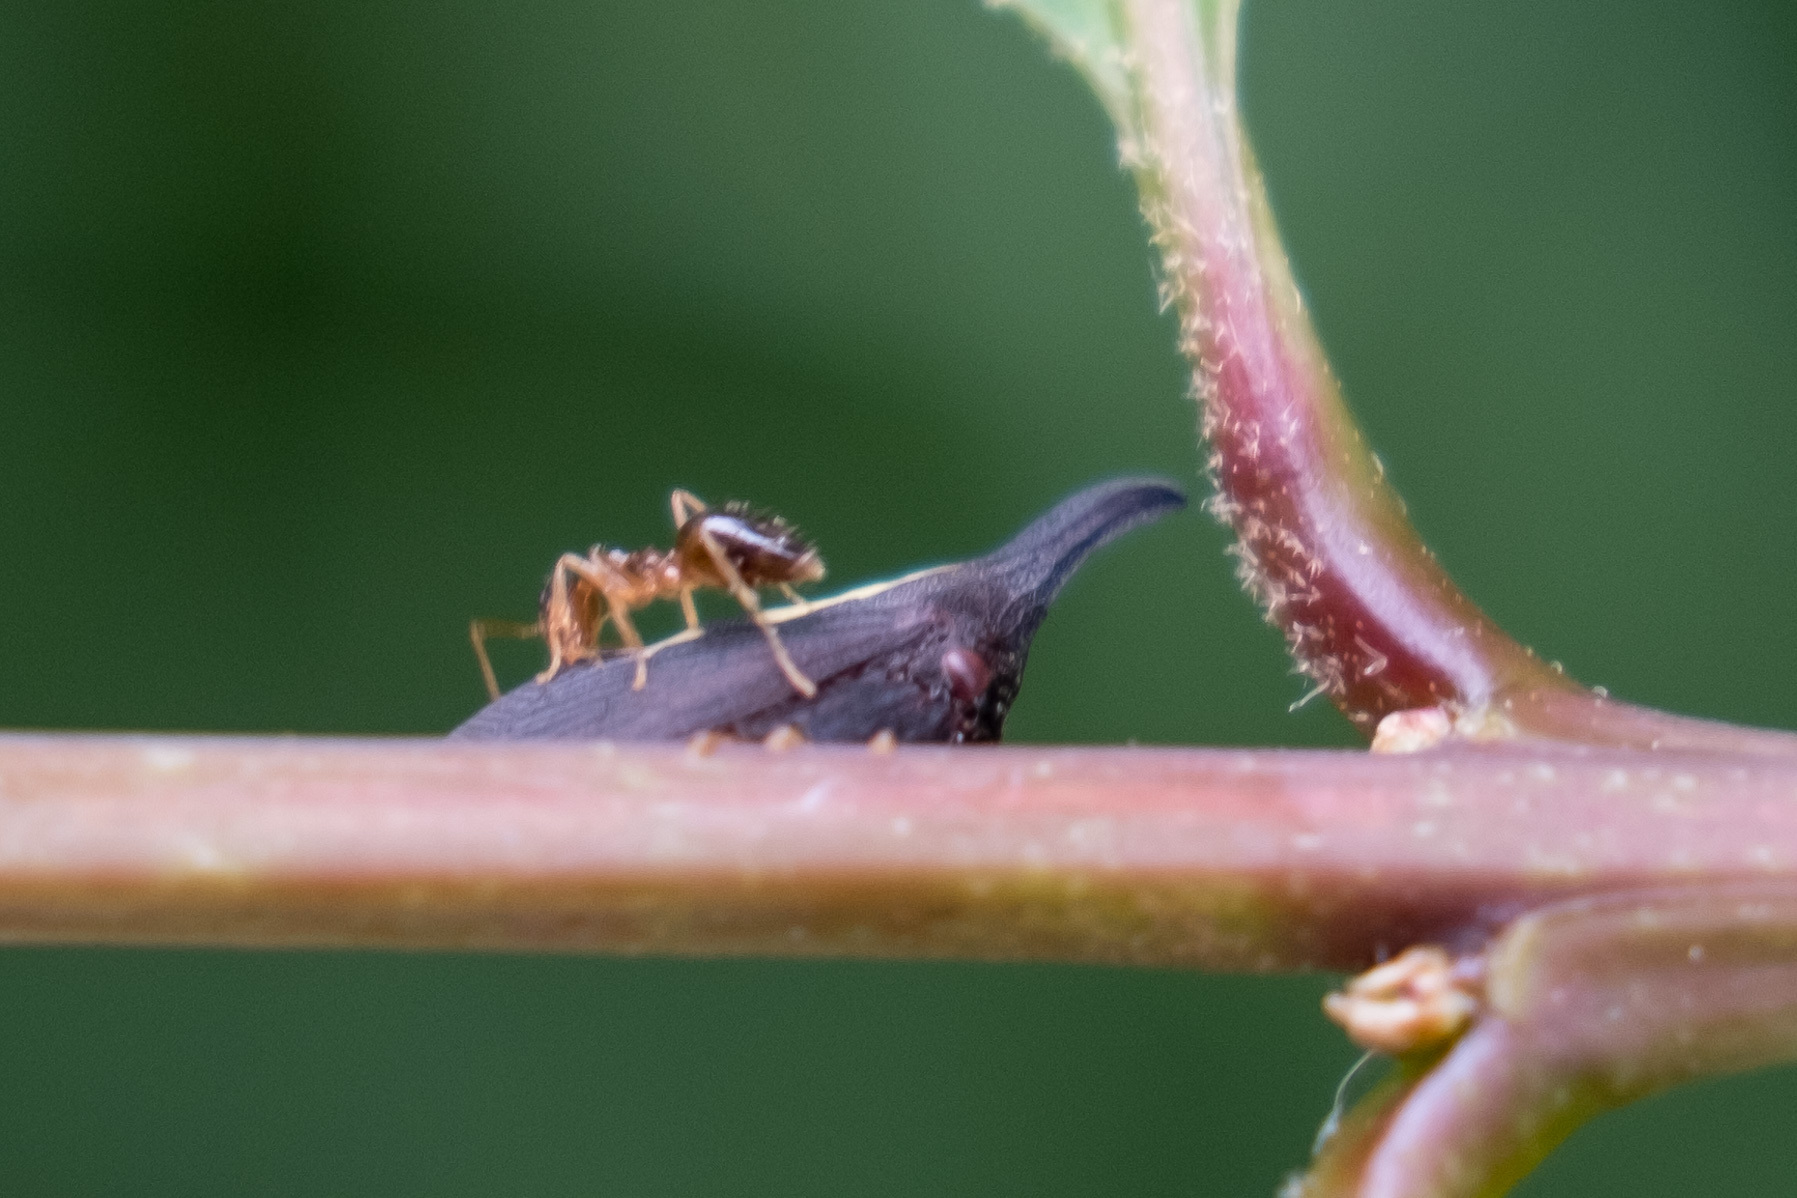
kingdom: Animalia
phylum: Arthropoda
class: Insecta
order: Hemiptera
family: Membracidae
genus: Enchenopa
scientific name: Enchenopa
